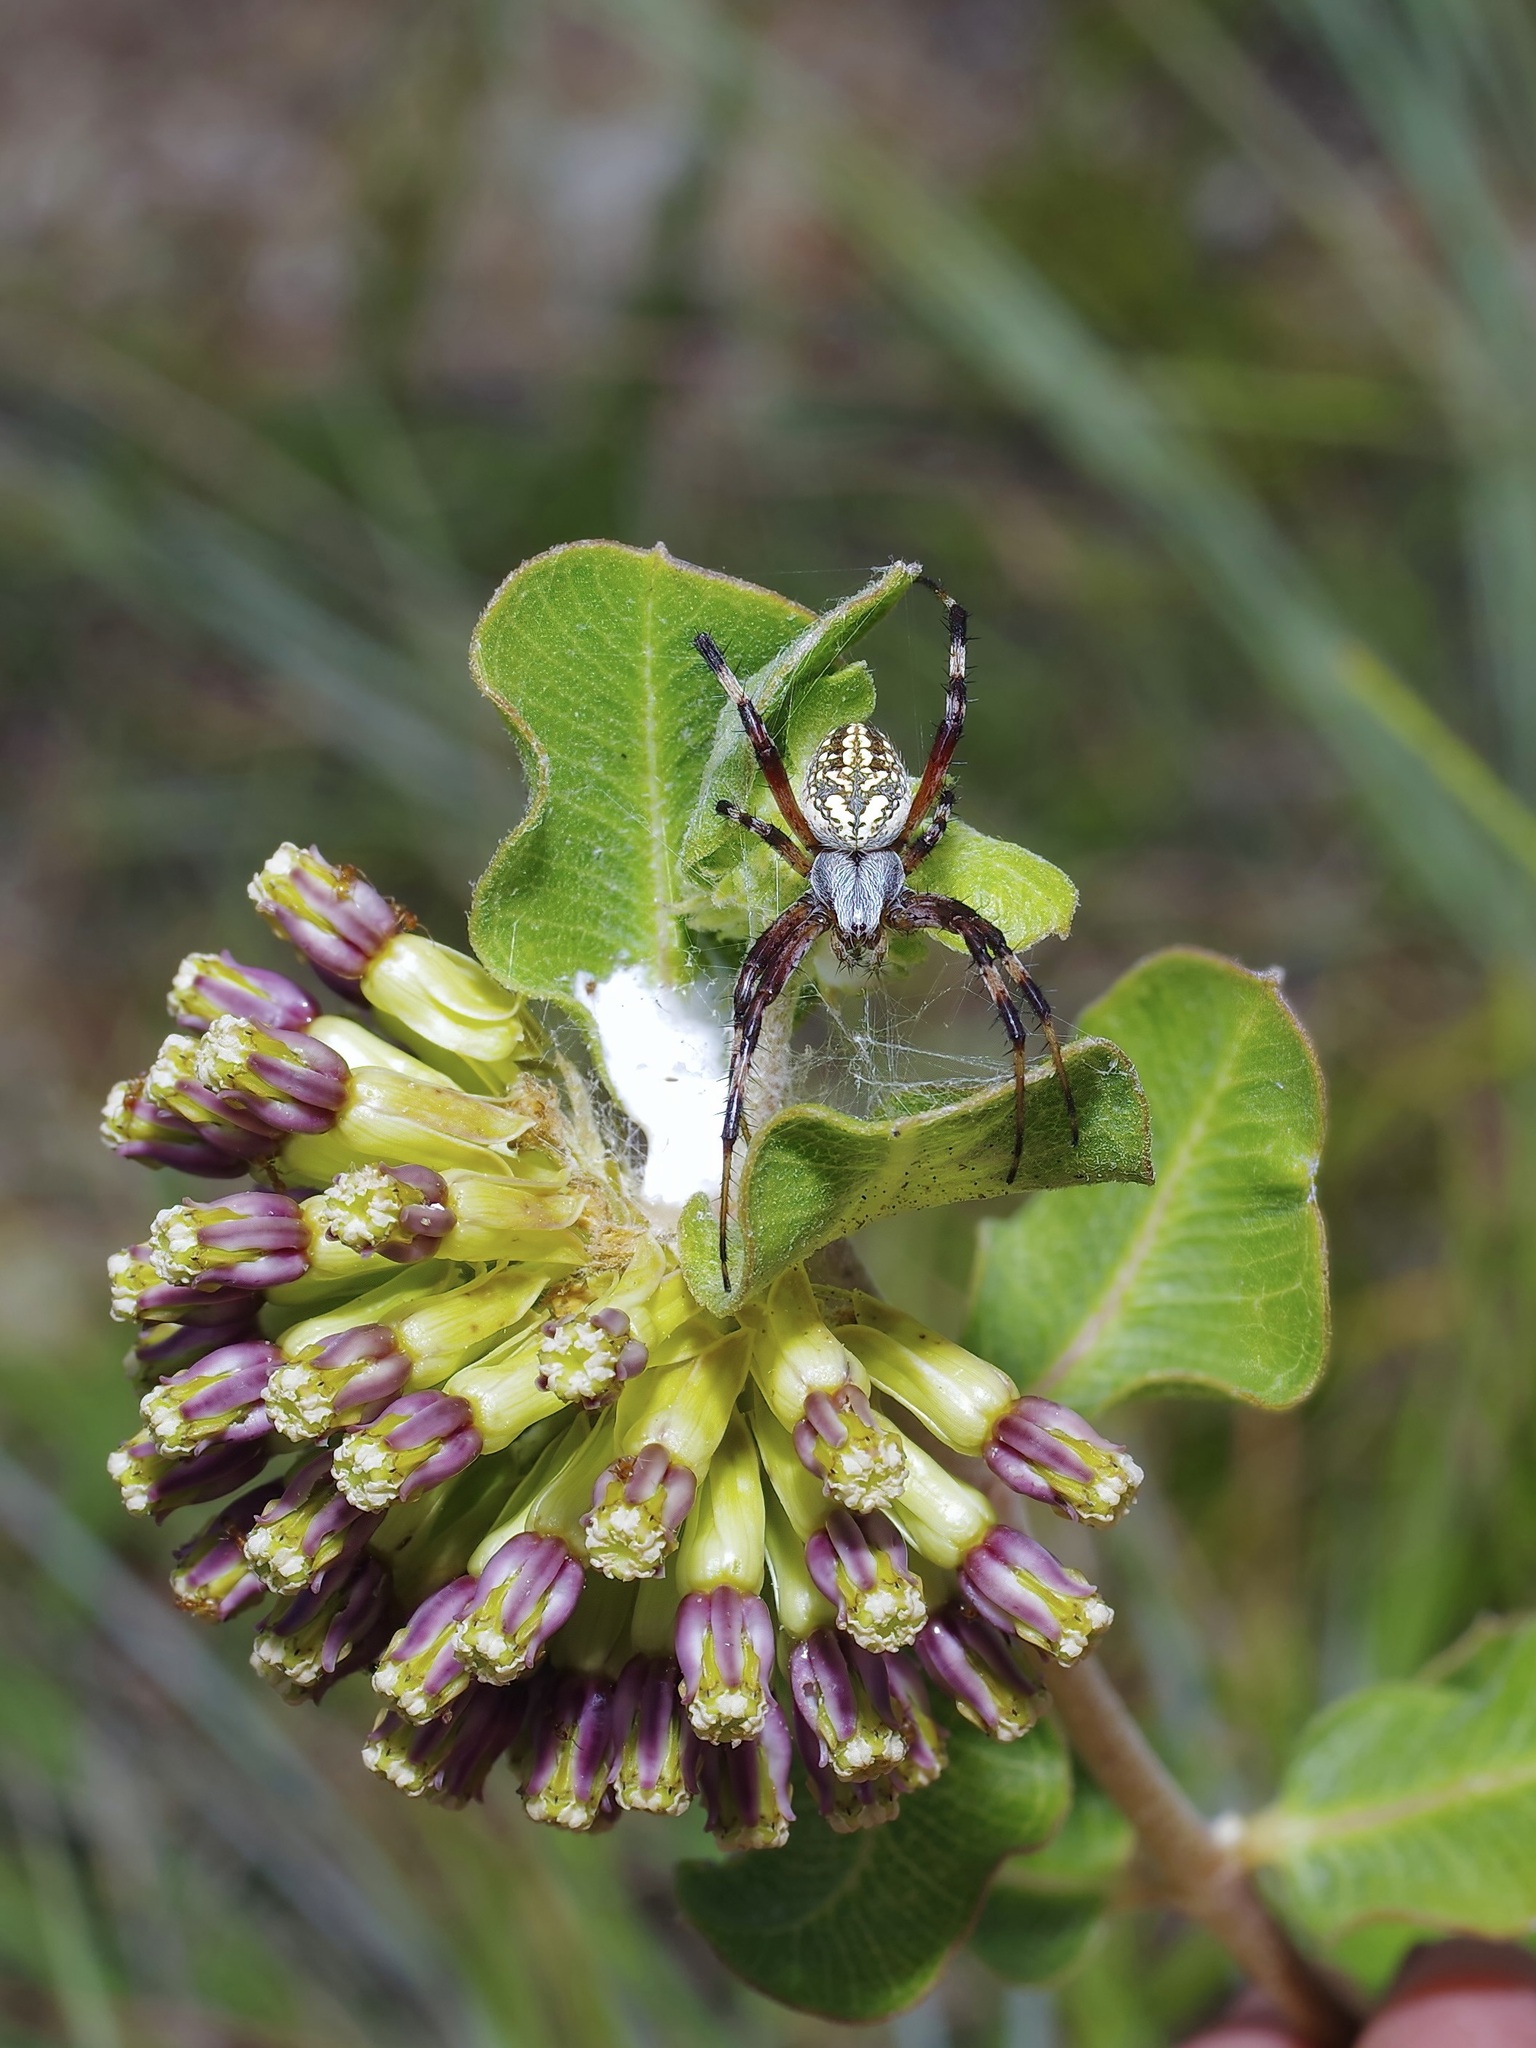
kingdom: Animalia
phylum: Arthropoda
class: Arachnida
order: Araneae
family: Araneidae
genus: Neoscona
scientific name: Neoscona oaxacensis
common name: Orb weavers
